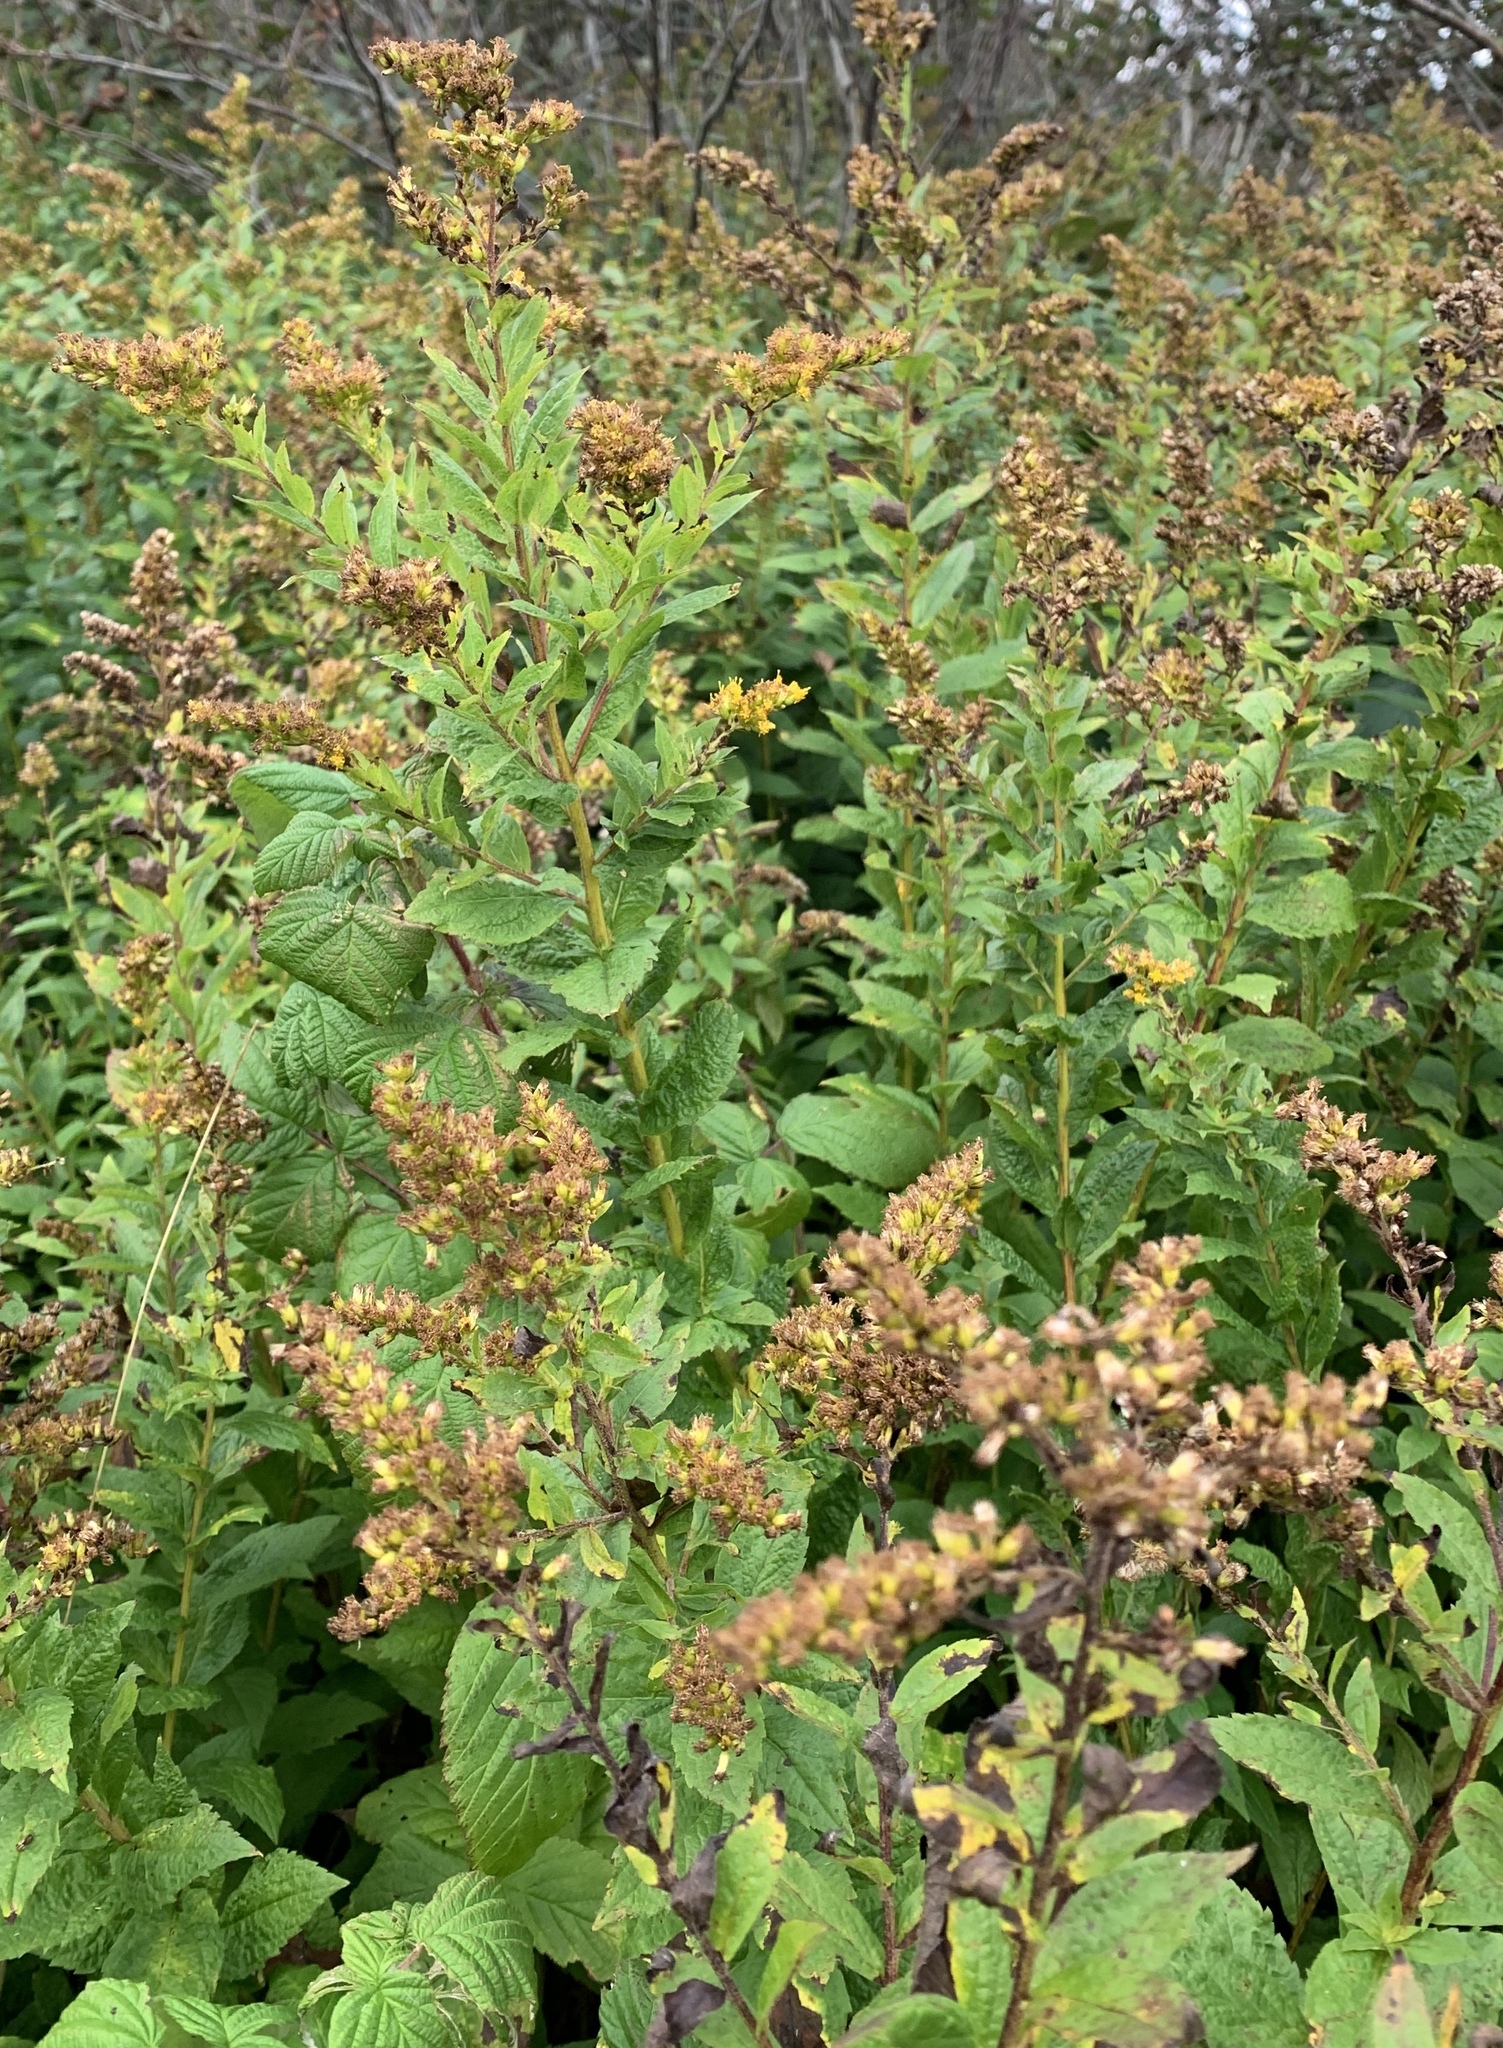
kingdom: Plantae
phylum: Tracheophyta
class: Magnoliopsida
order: Asterales
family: Asteraceae
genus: Solidago
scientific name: Solidago rugosa
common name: Rough-stemmed goldenrod
